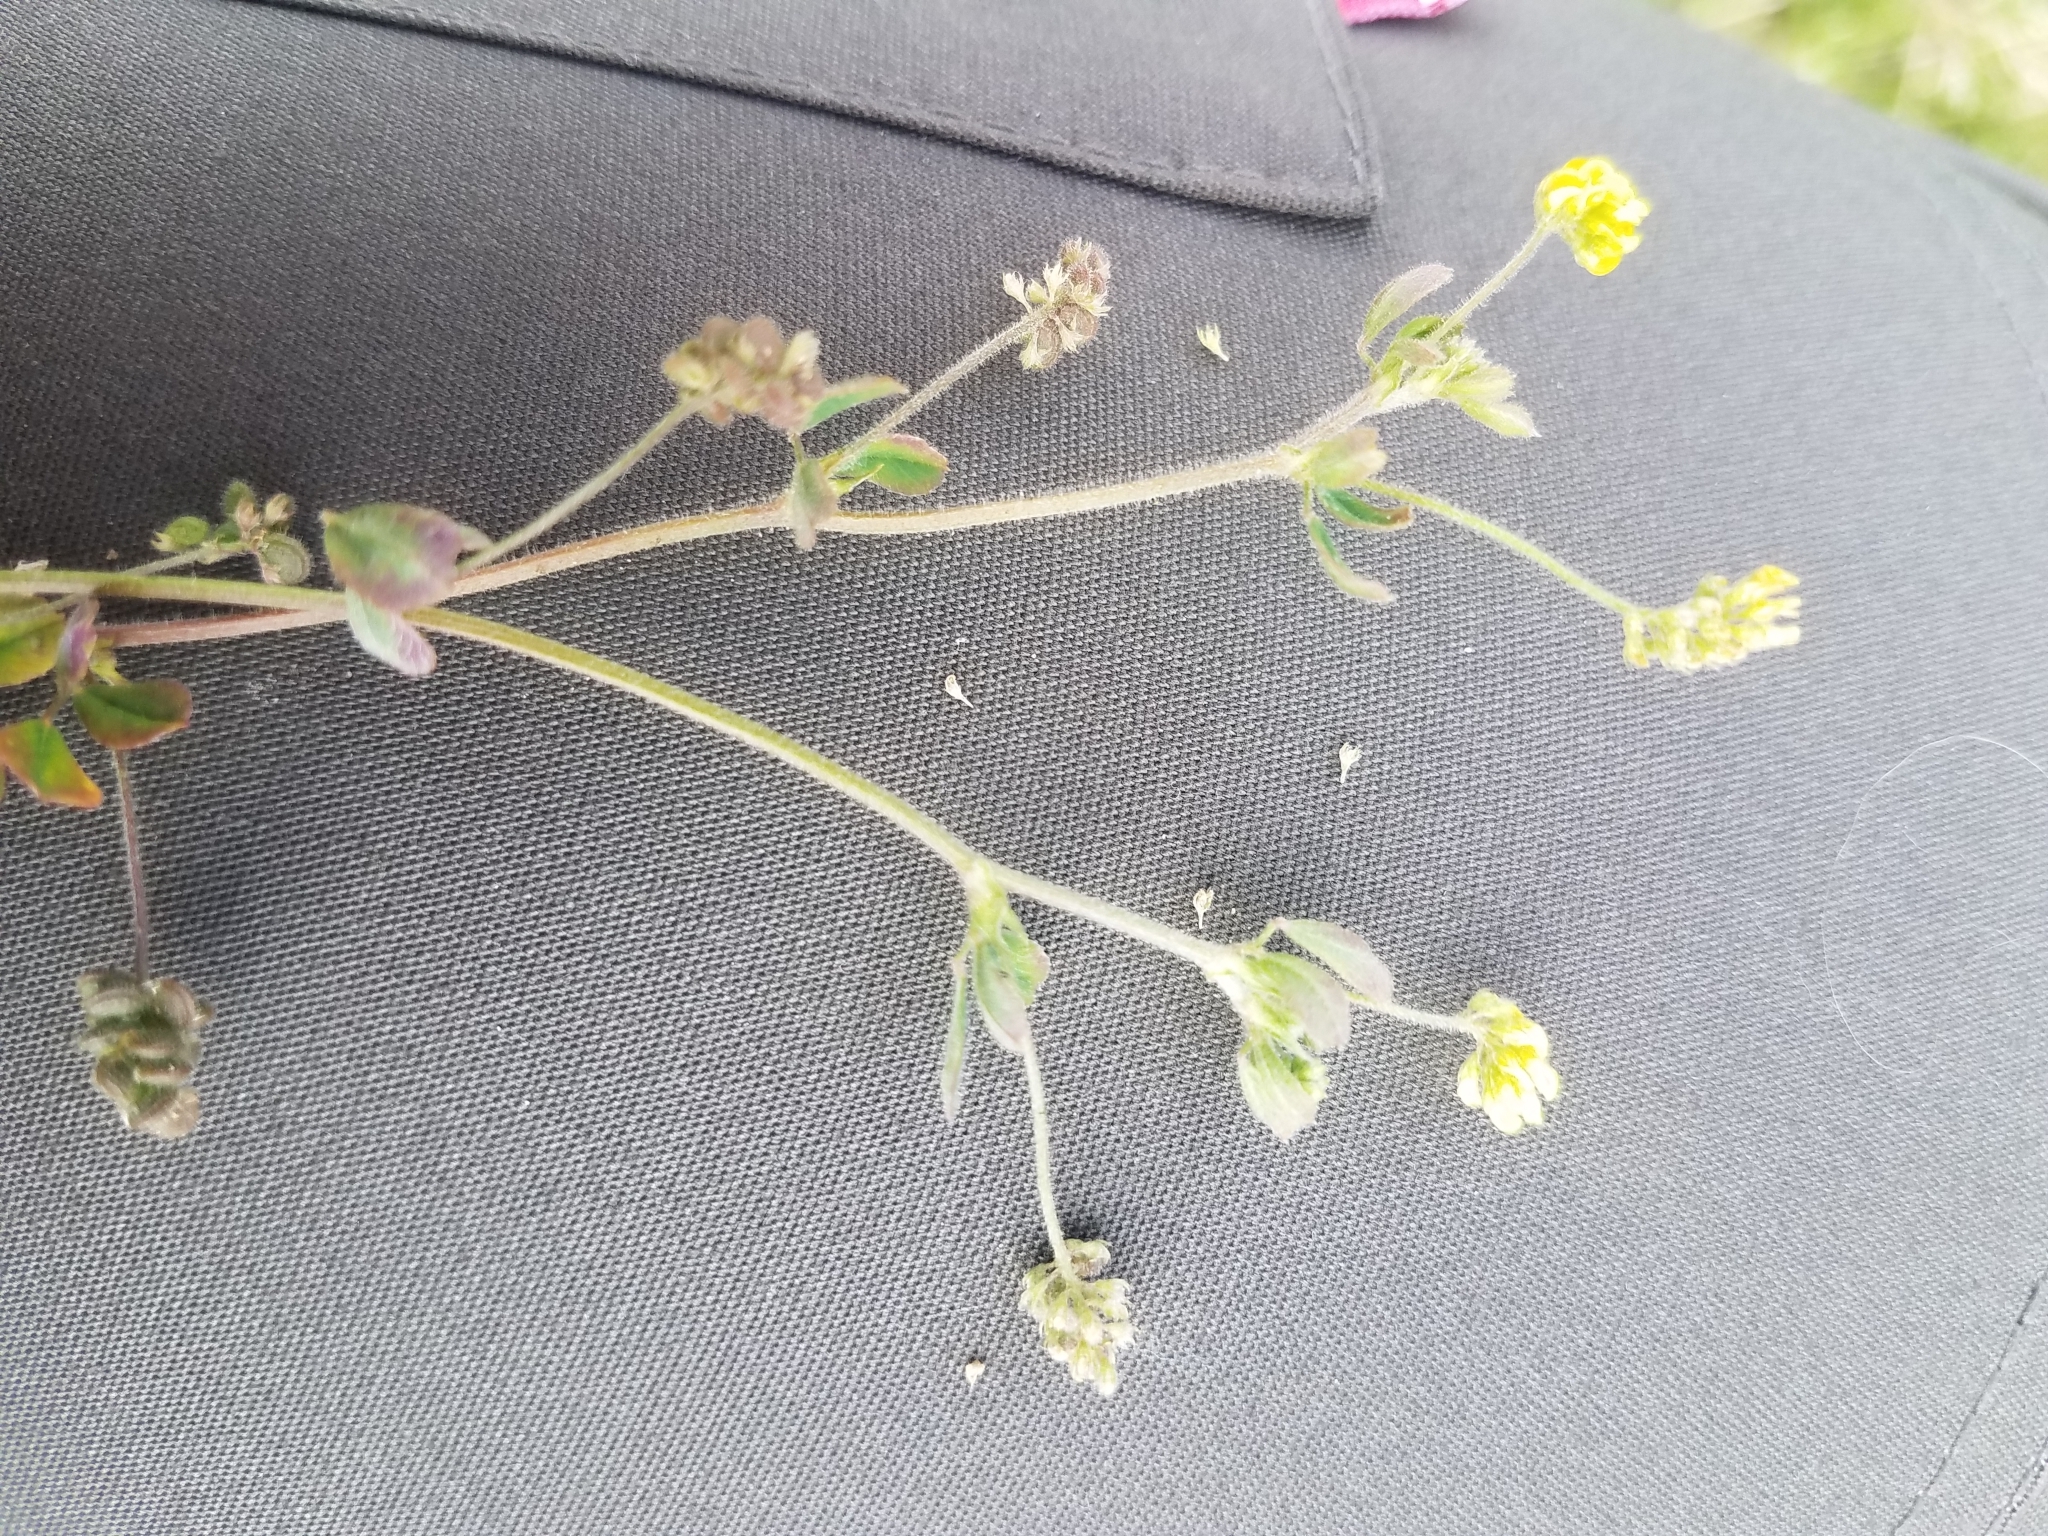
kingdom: Plantae
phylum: Tracheophyta
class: Magnoliopsida
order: Fabales
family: Fabaceae
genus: Medicago
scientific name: Medicago lupulina
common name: Black medick
